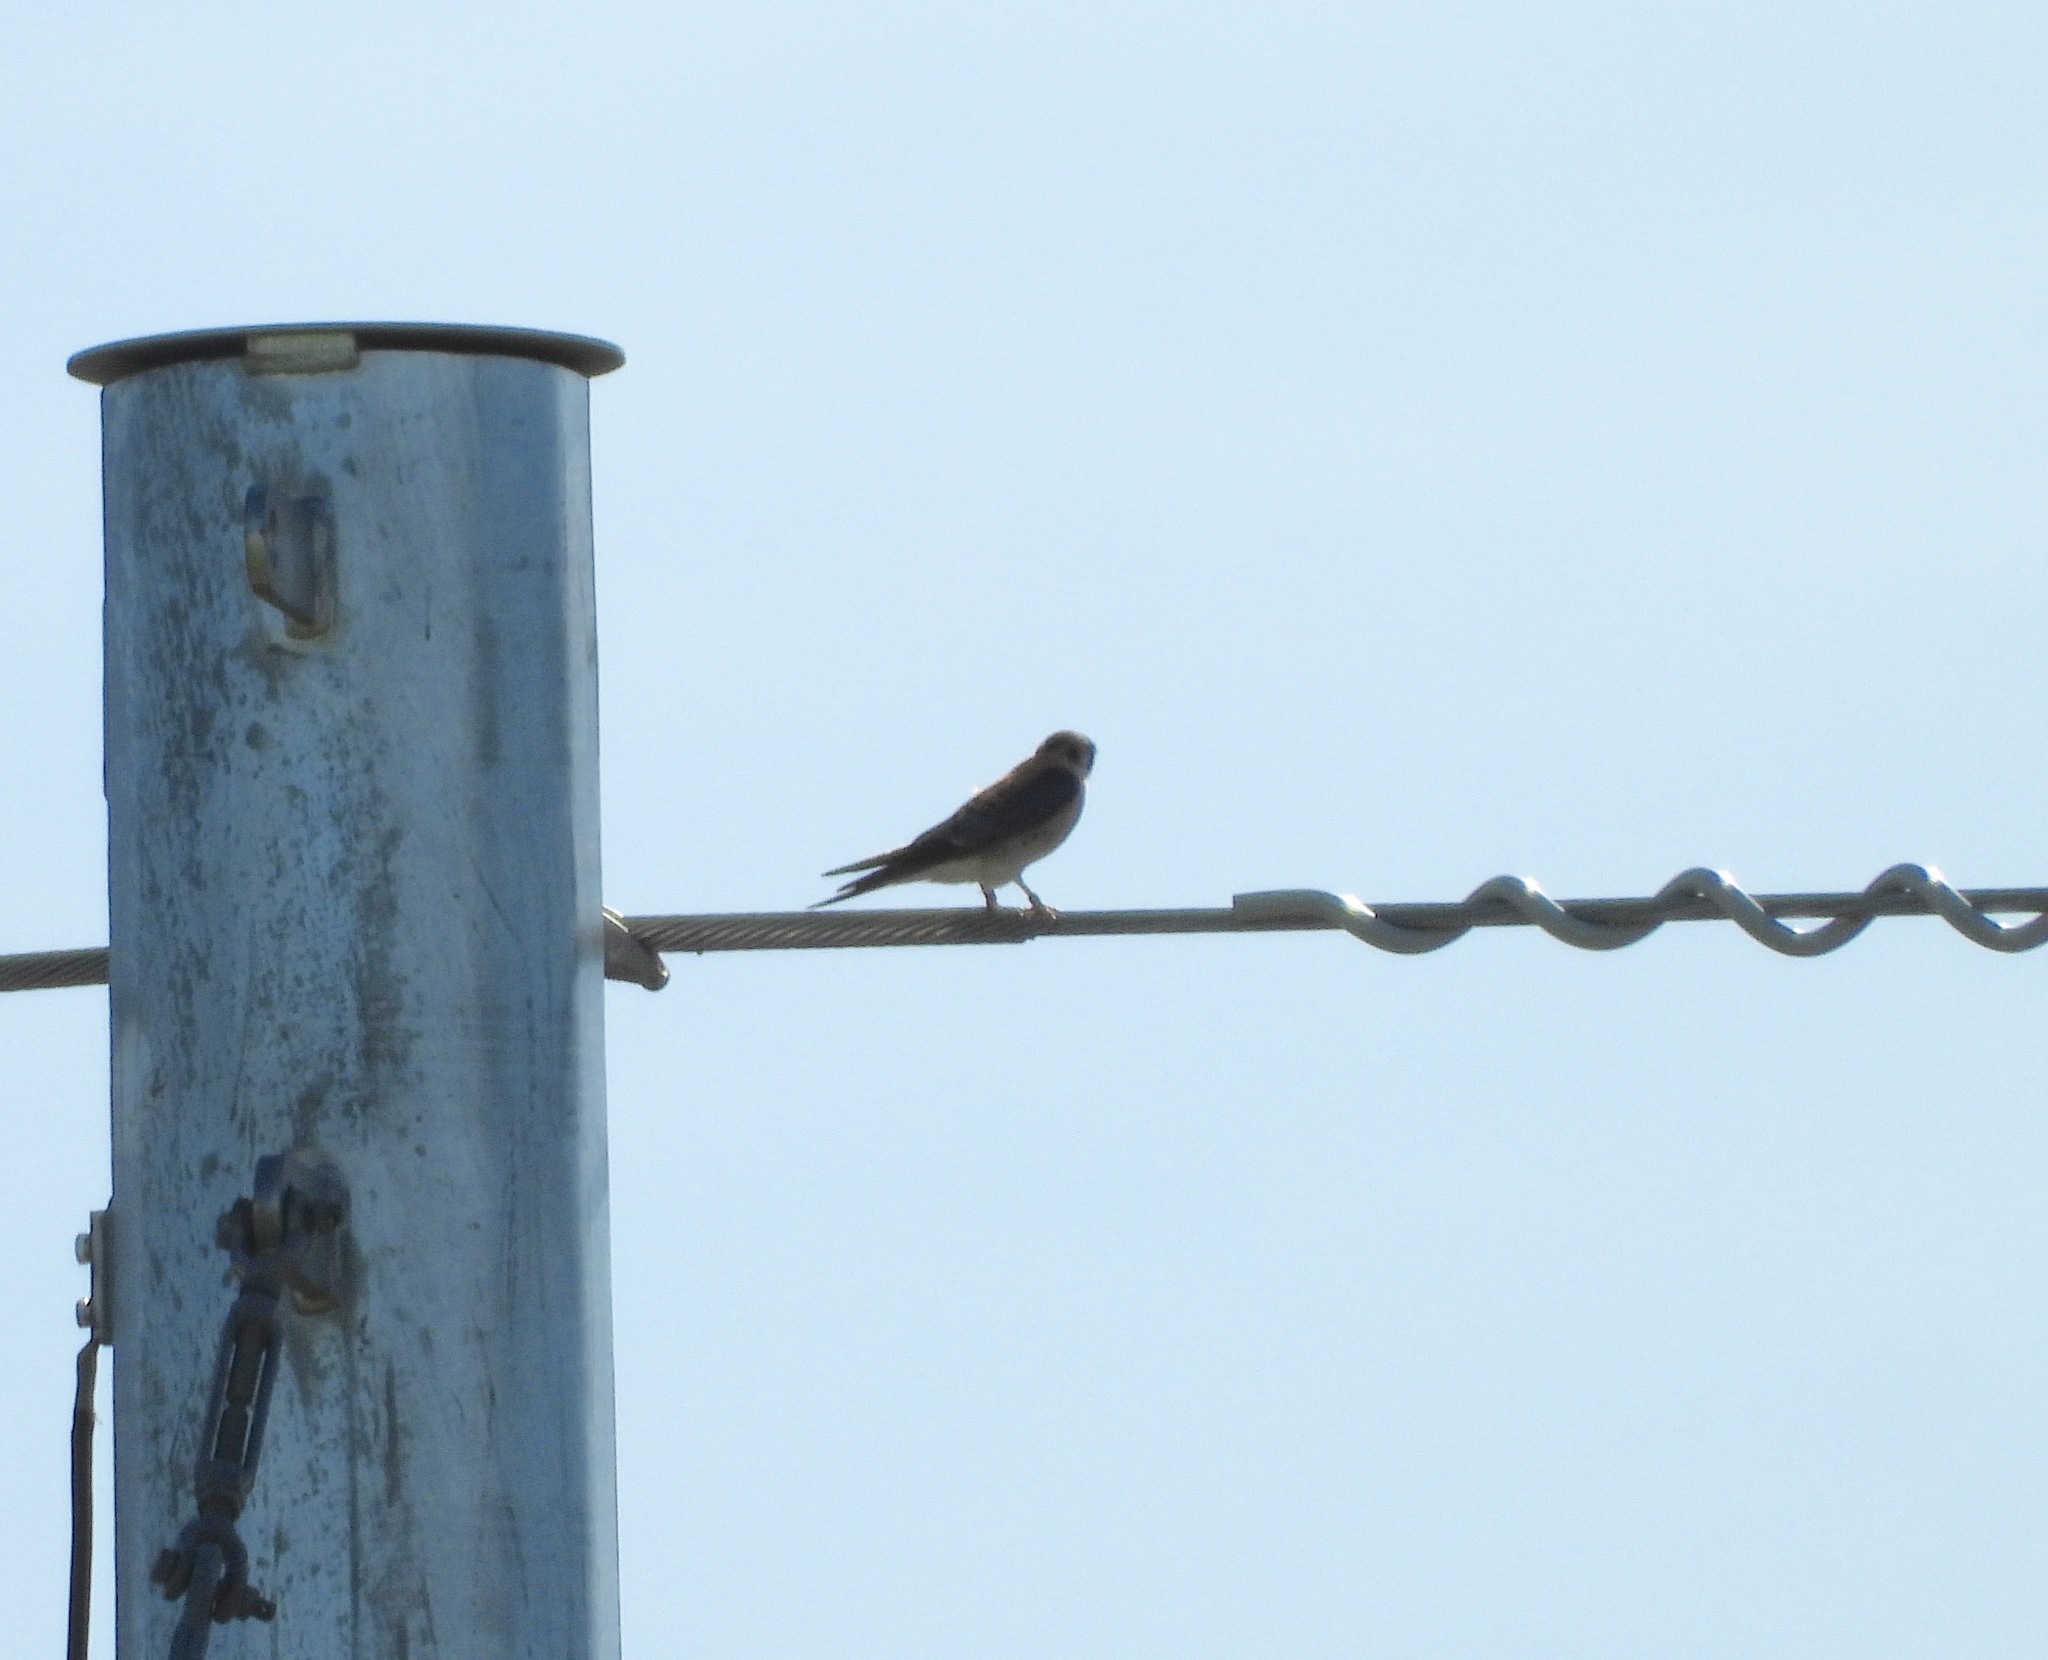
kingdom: Animalia
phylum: Chordata
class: Aves
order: Falconiformes
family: Falconidae
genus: Falco
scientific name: Falco sparverius
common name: American kestrel
